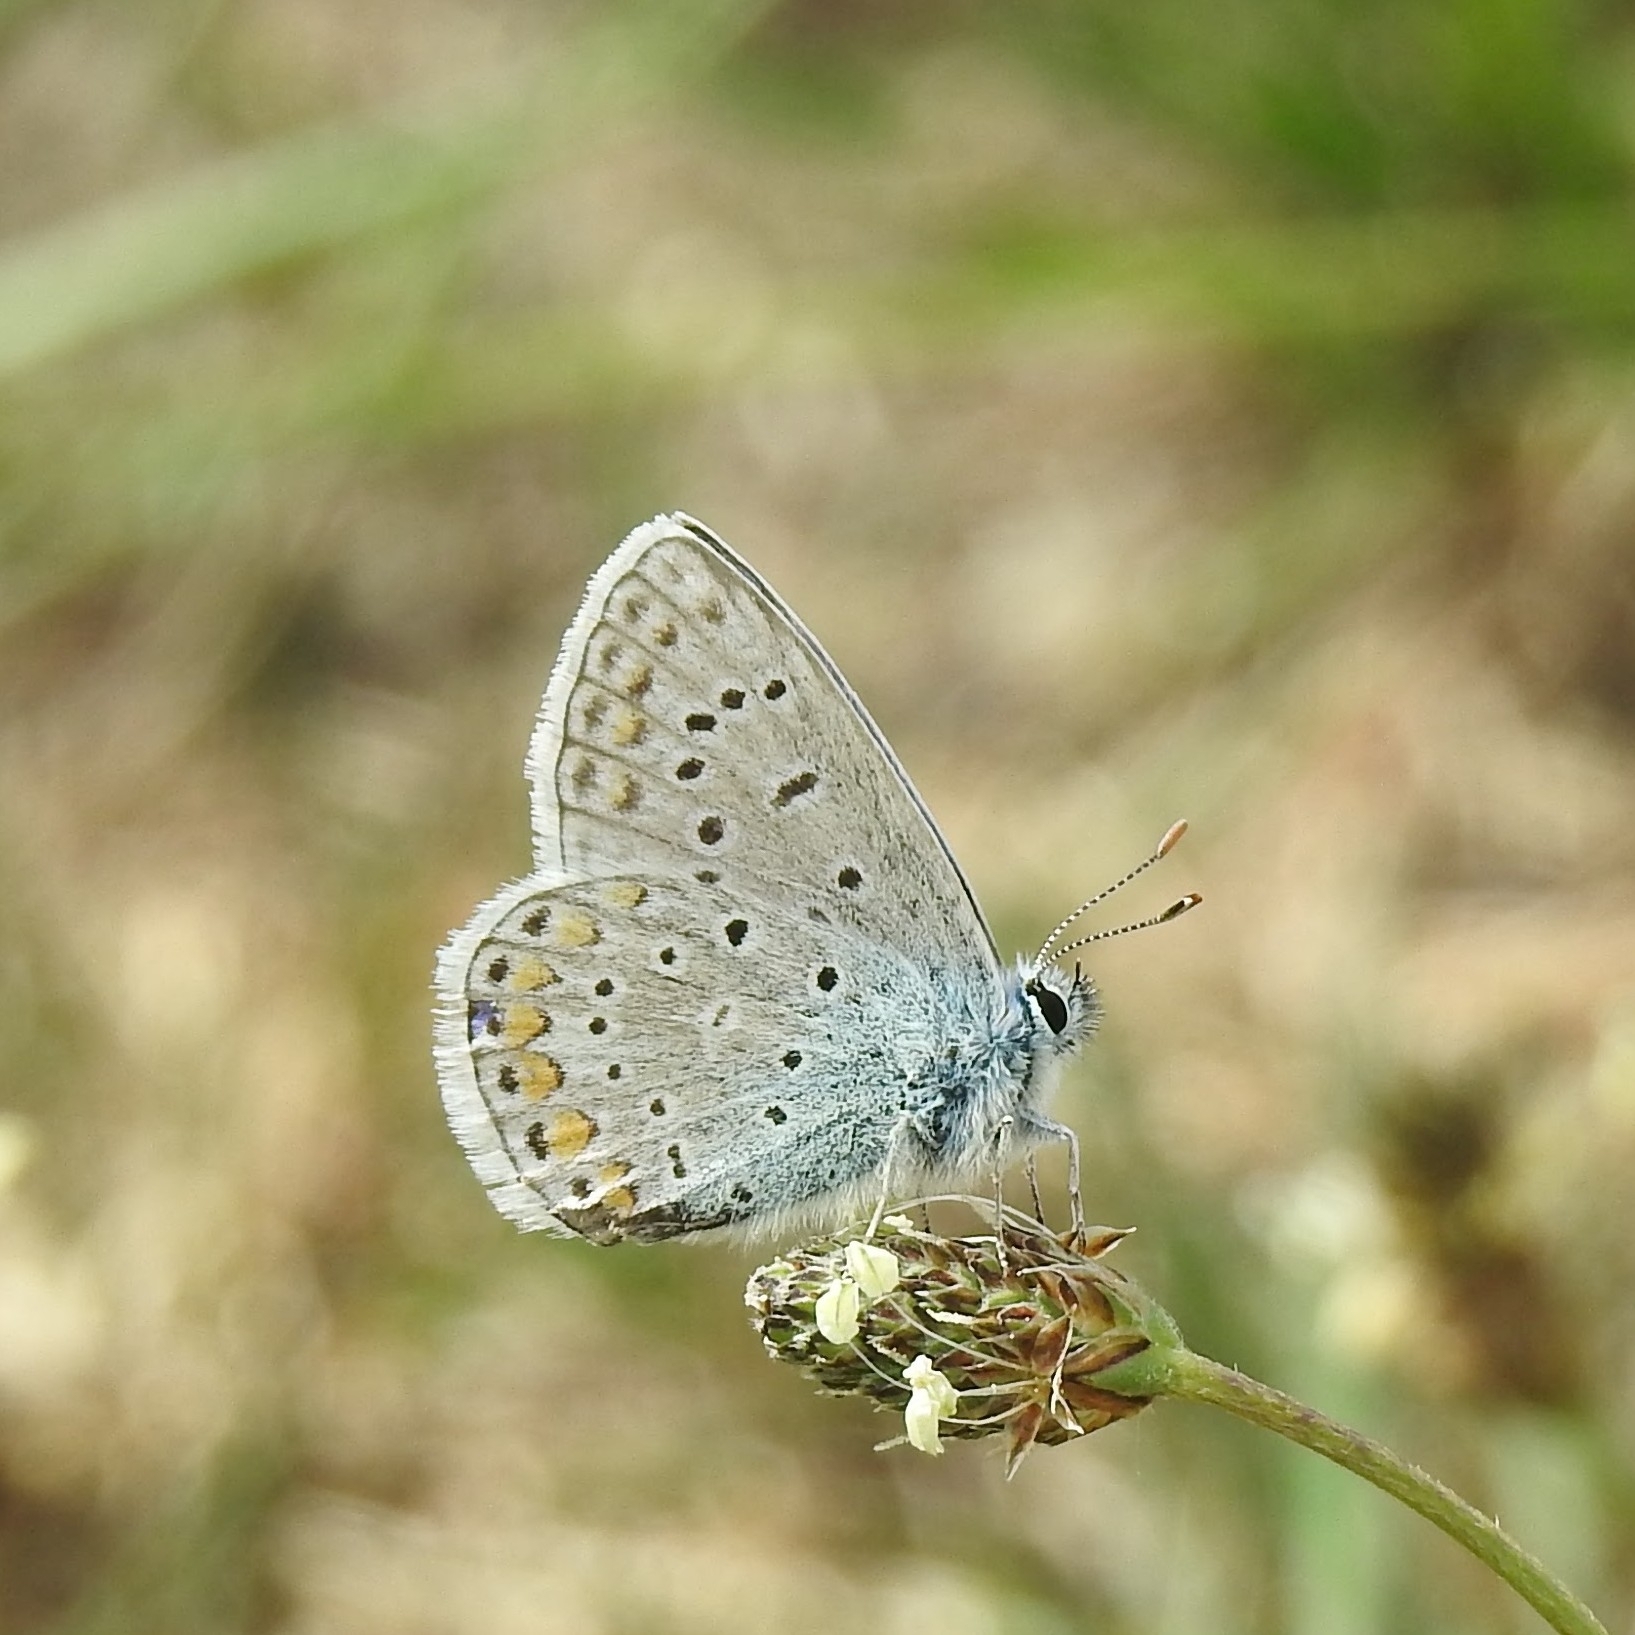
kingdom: Animalia
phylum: Arthropoda
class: Insecta
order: Lepidoptera
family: Lycaenidae
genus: Polyommatus
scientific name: Polyommatus icarus
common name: Common blue
